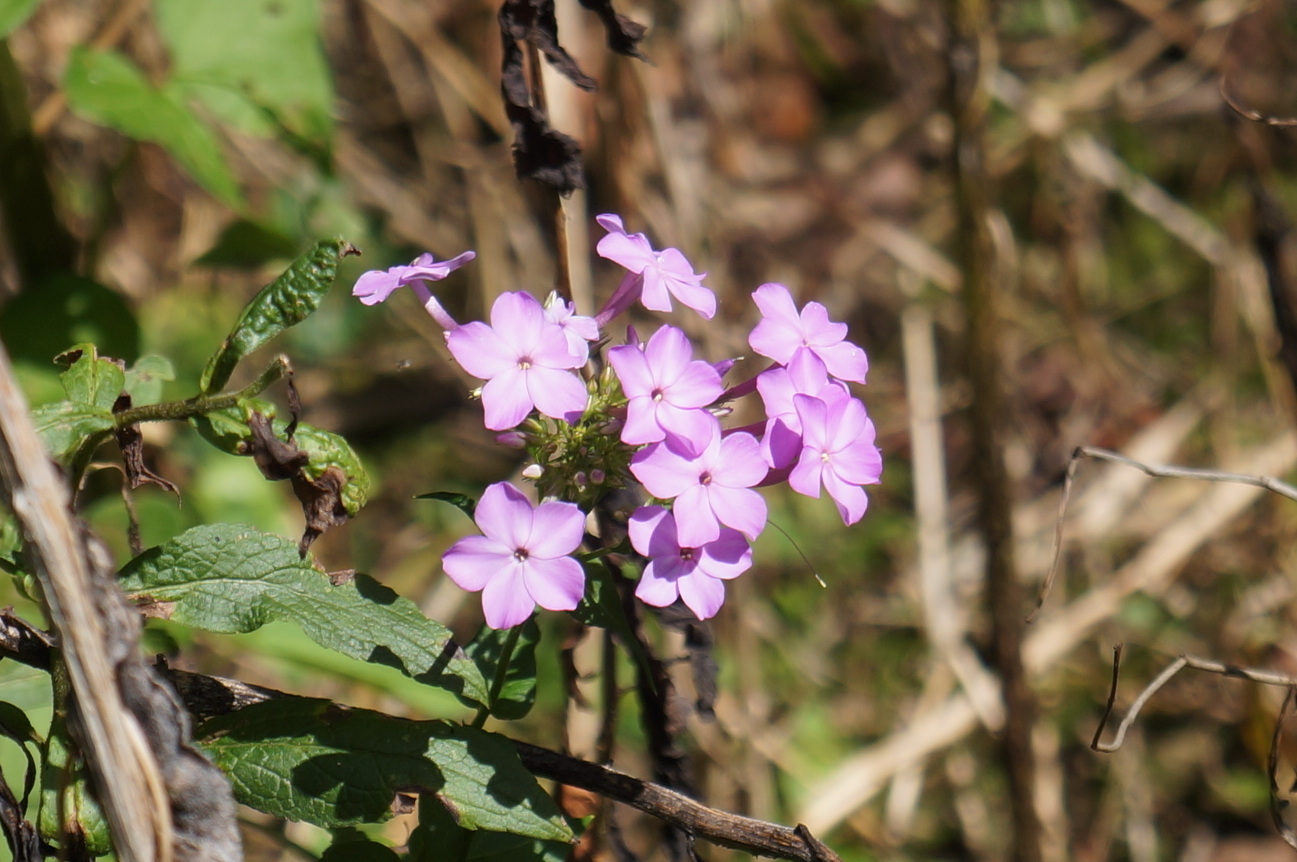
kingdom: Plantae
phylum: Tracheophyta
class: Magnoliopsida
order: Ericales
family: Polemoniaceae
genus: Phlox
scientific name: Phlox paniculata
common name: Fall phlox
